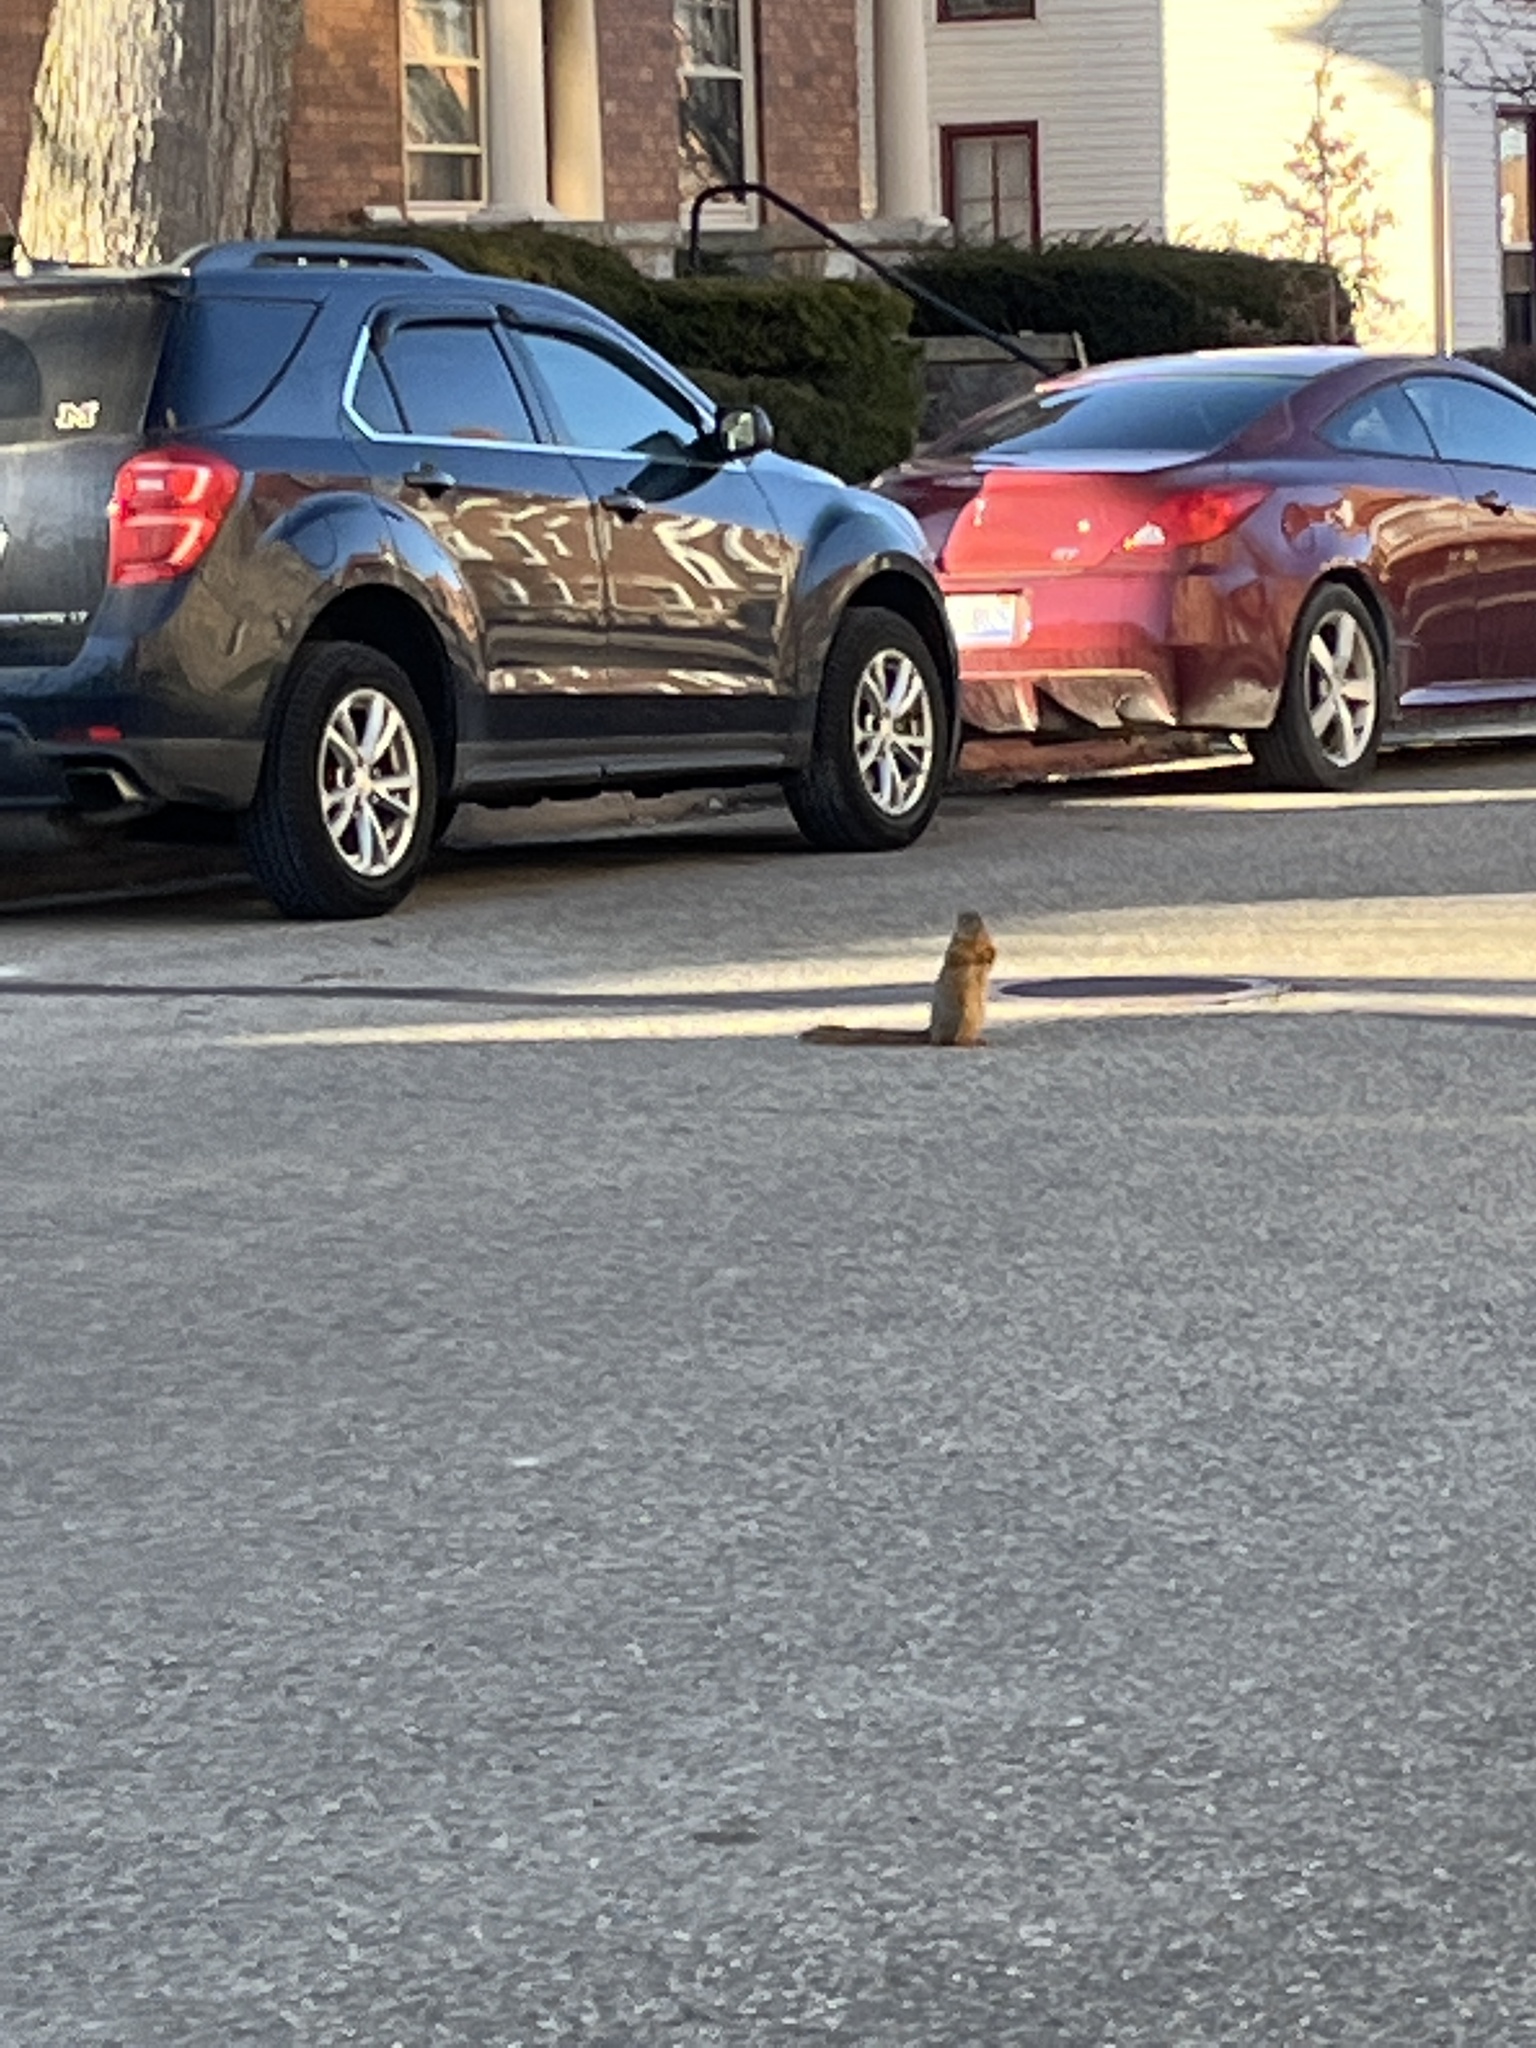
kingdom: Animalia
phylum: Chordata
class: Mammalia
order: Rodentia
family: Sciuridae
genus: Sciurus
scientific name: Sciurus niger
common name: Fox squirrel
